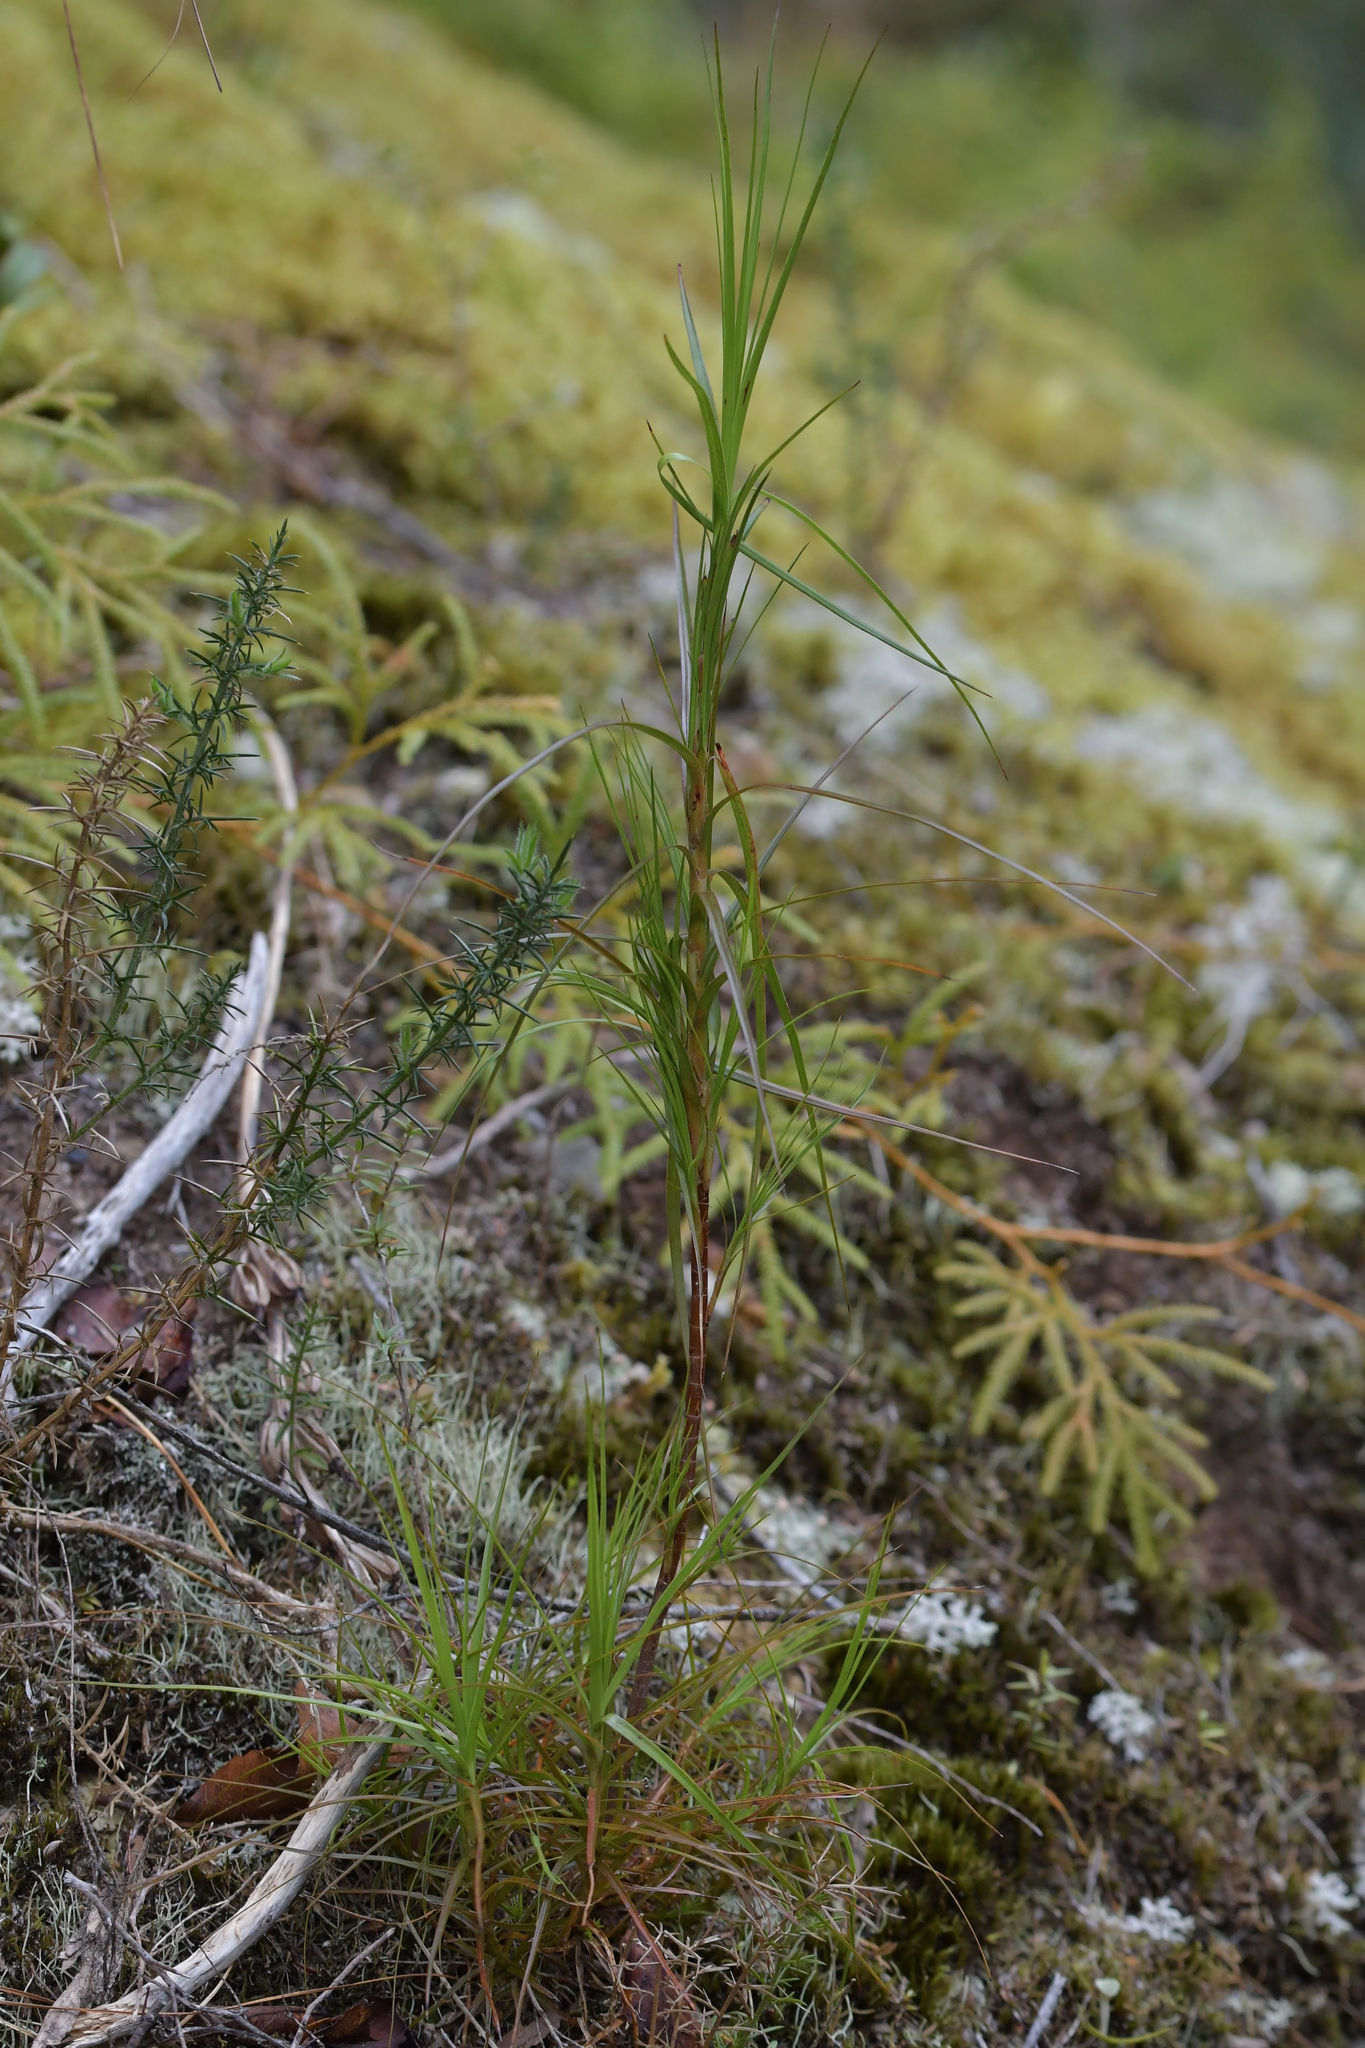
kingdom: Plantae
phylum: Tracheophyta
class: Magnoliopsida
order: Ericales
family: Ericaceae
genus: Dracophyllum
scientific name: Dracophyllum filifolium
